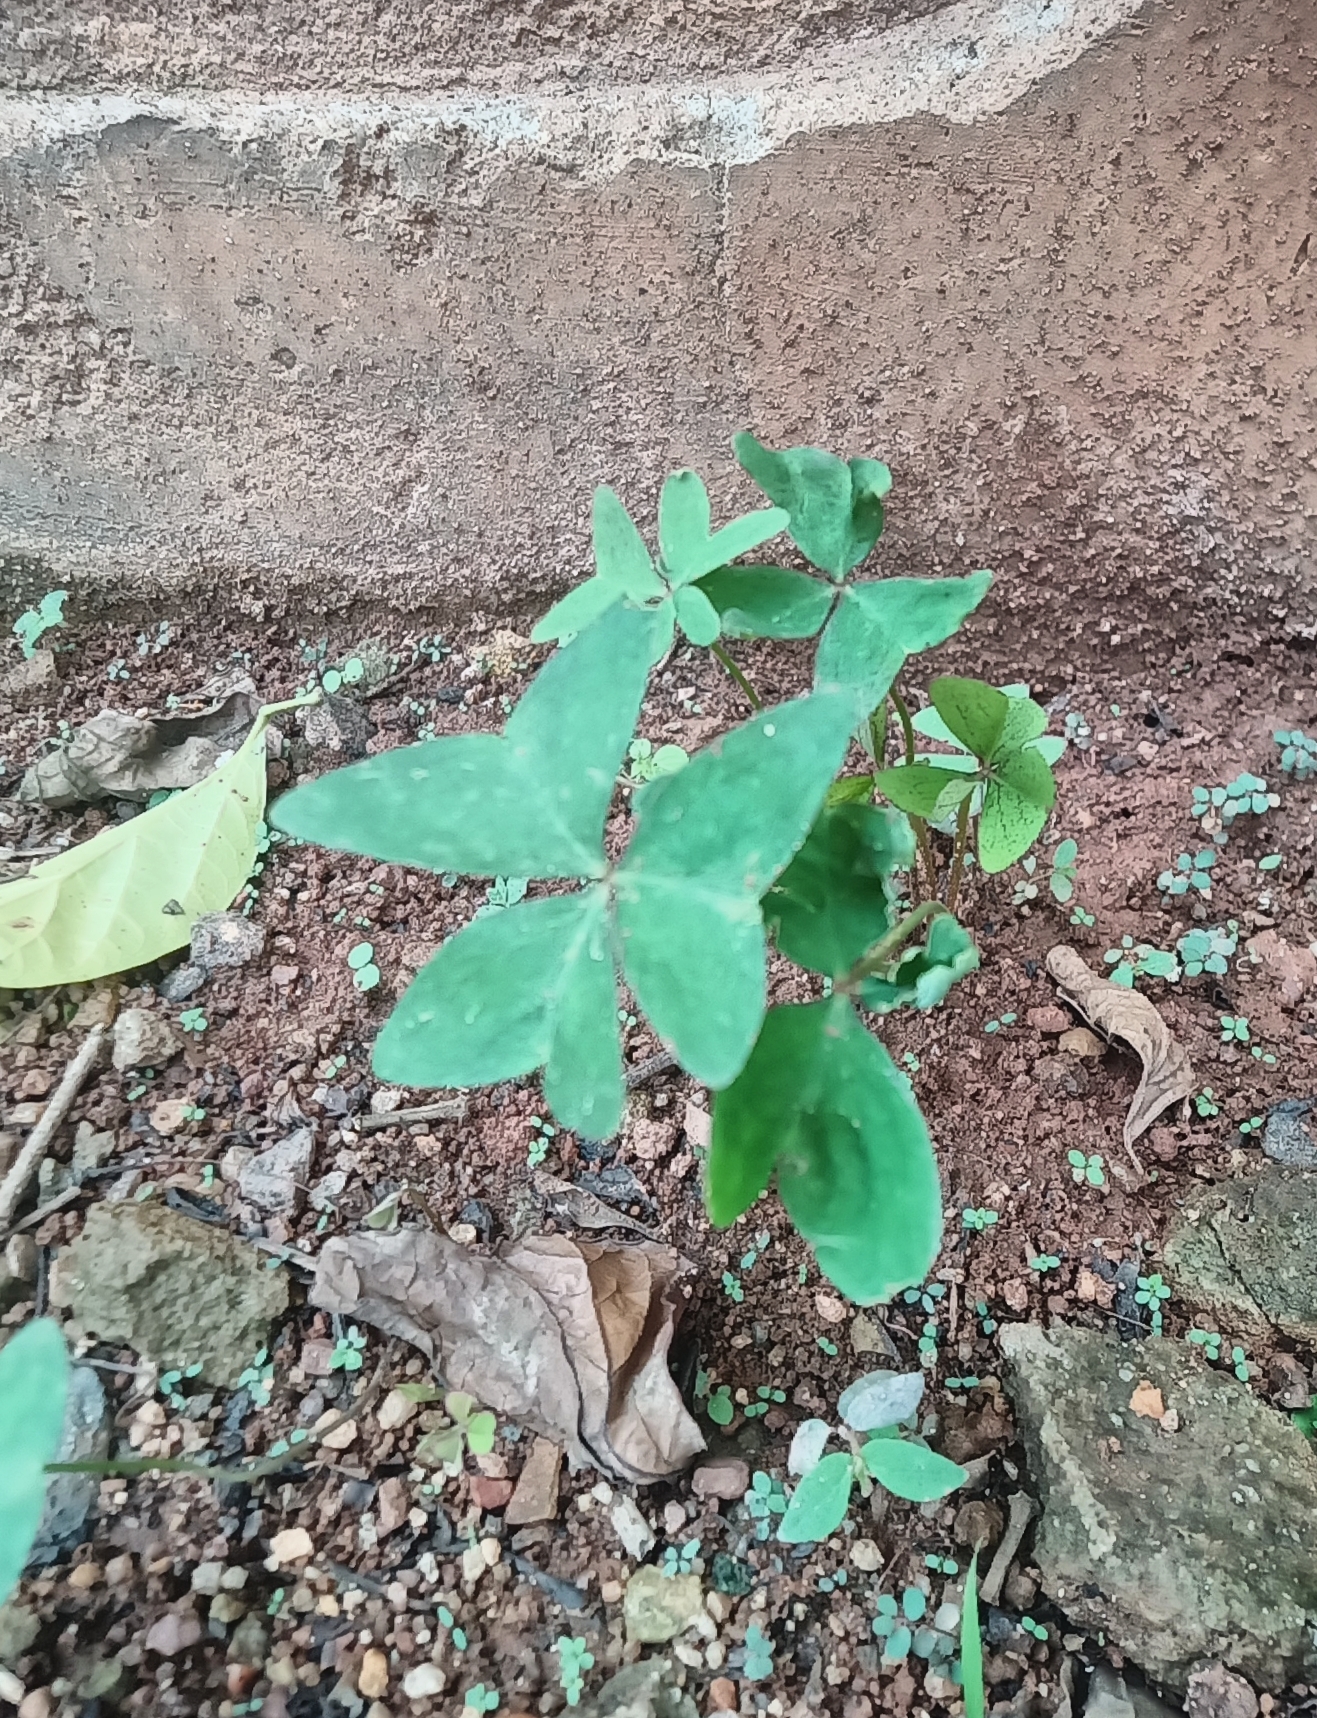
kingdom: Plantae
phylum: Tracheophyta
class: Magnoliopsida
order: Oxalidales
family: Oxalidaceae
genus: Oxalis
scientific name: Oxalis latifolia
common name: Garden pink-sorrel
